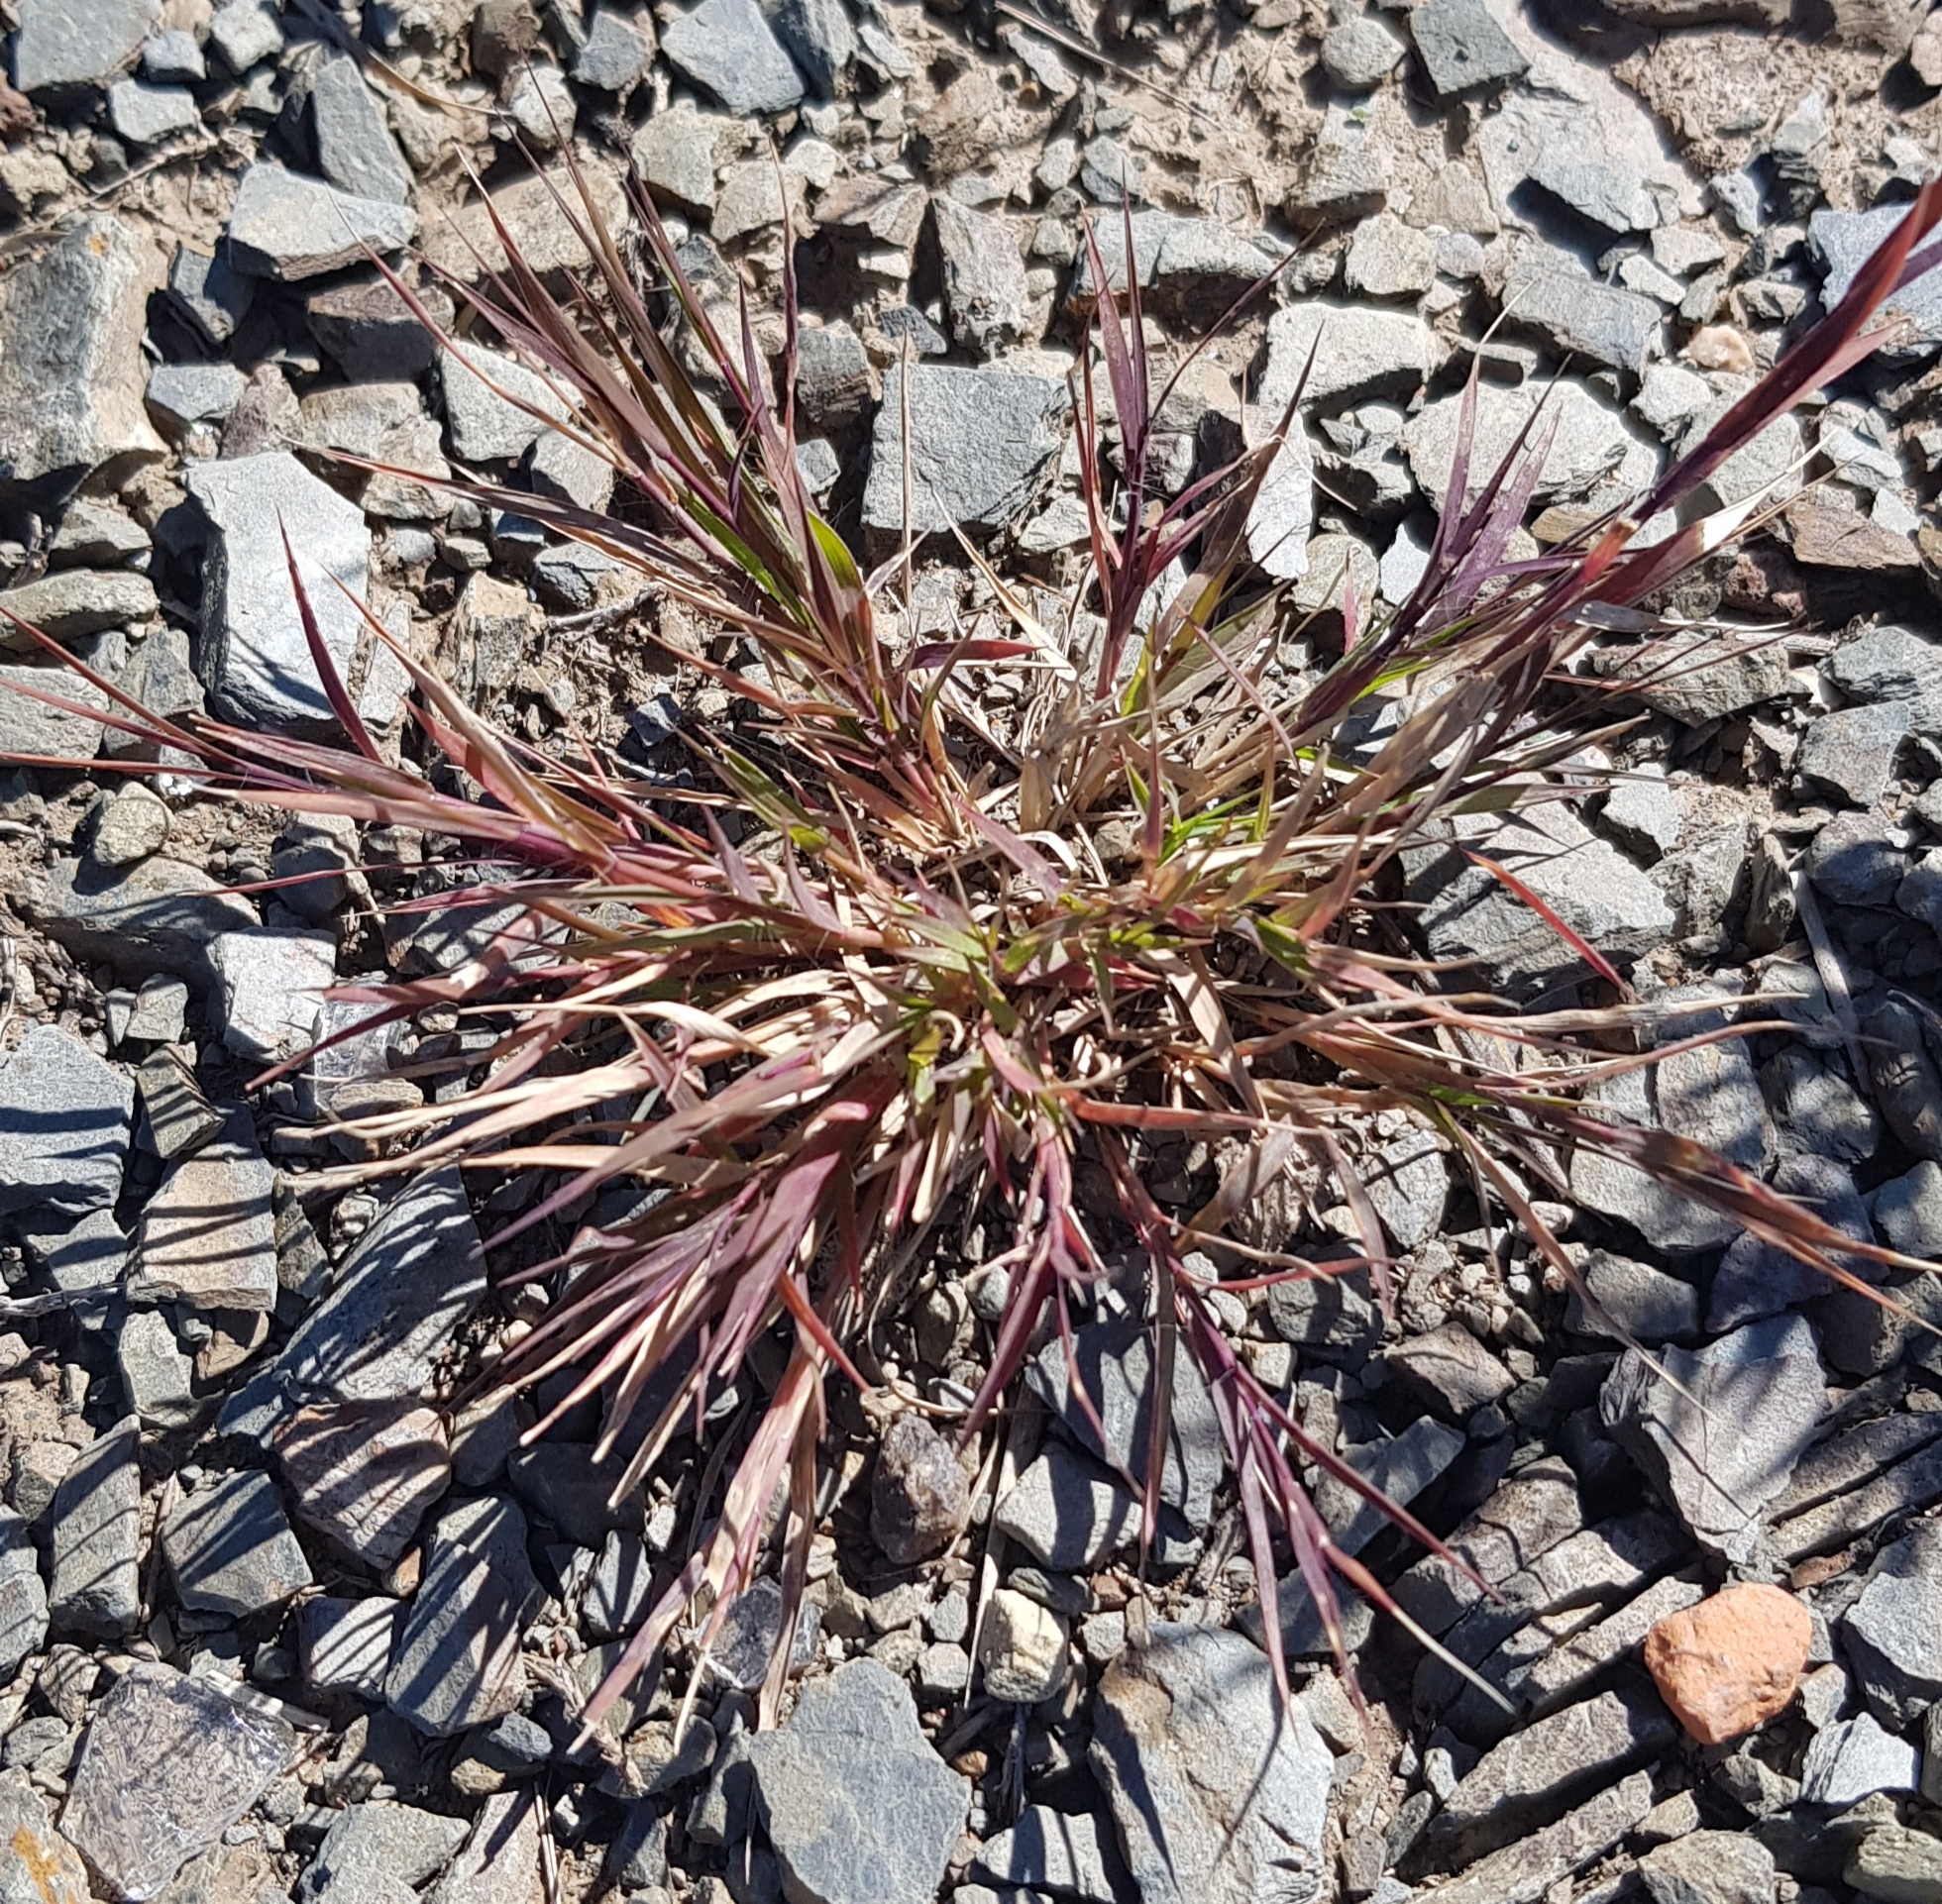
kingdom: Plantae
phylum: Tracheophyta
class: Liliopsida
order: Poales
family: Poaceae
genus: Cleistogenes
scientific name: Cleistogenes squarrosa
